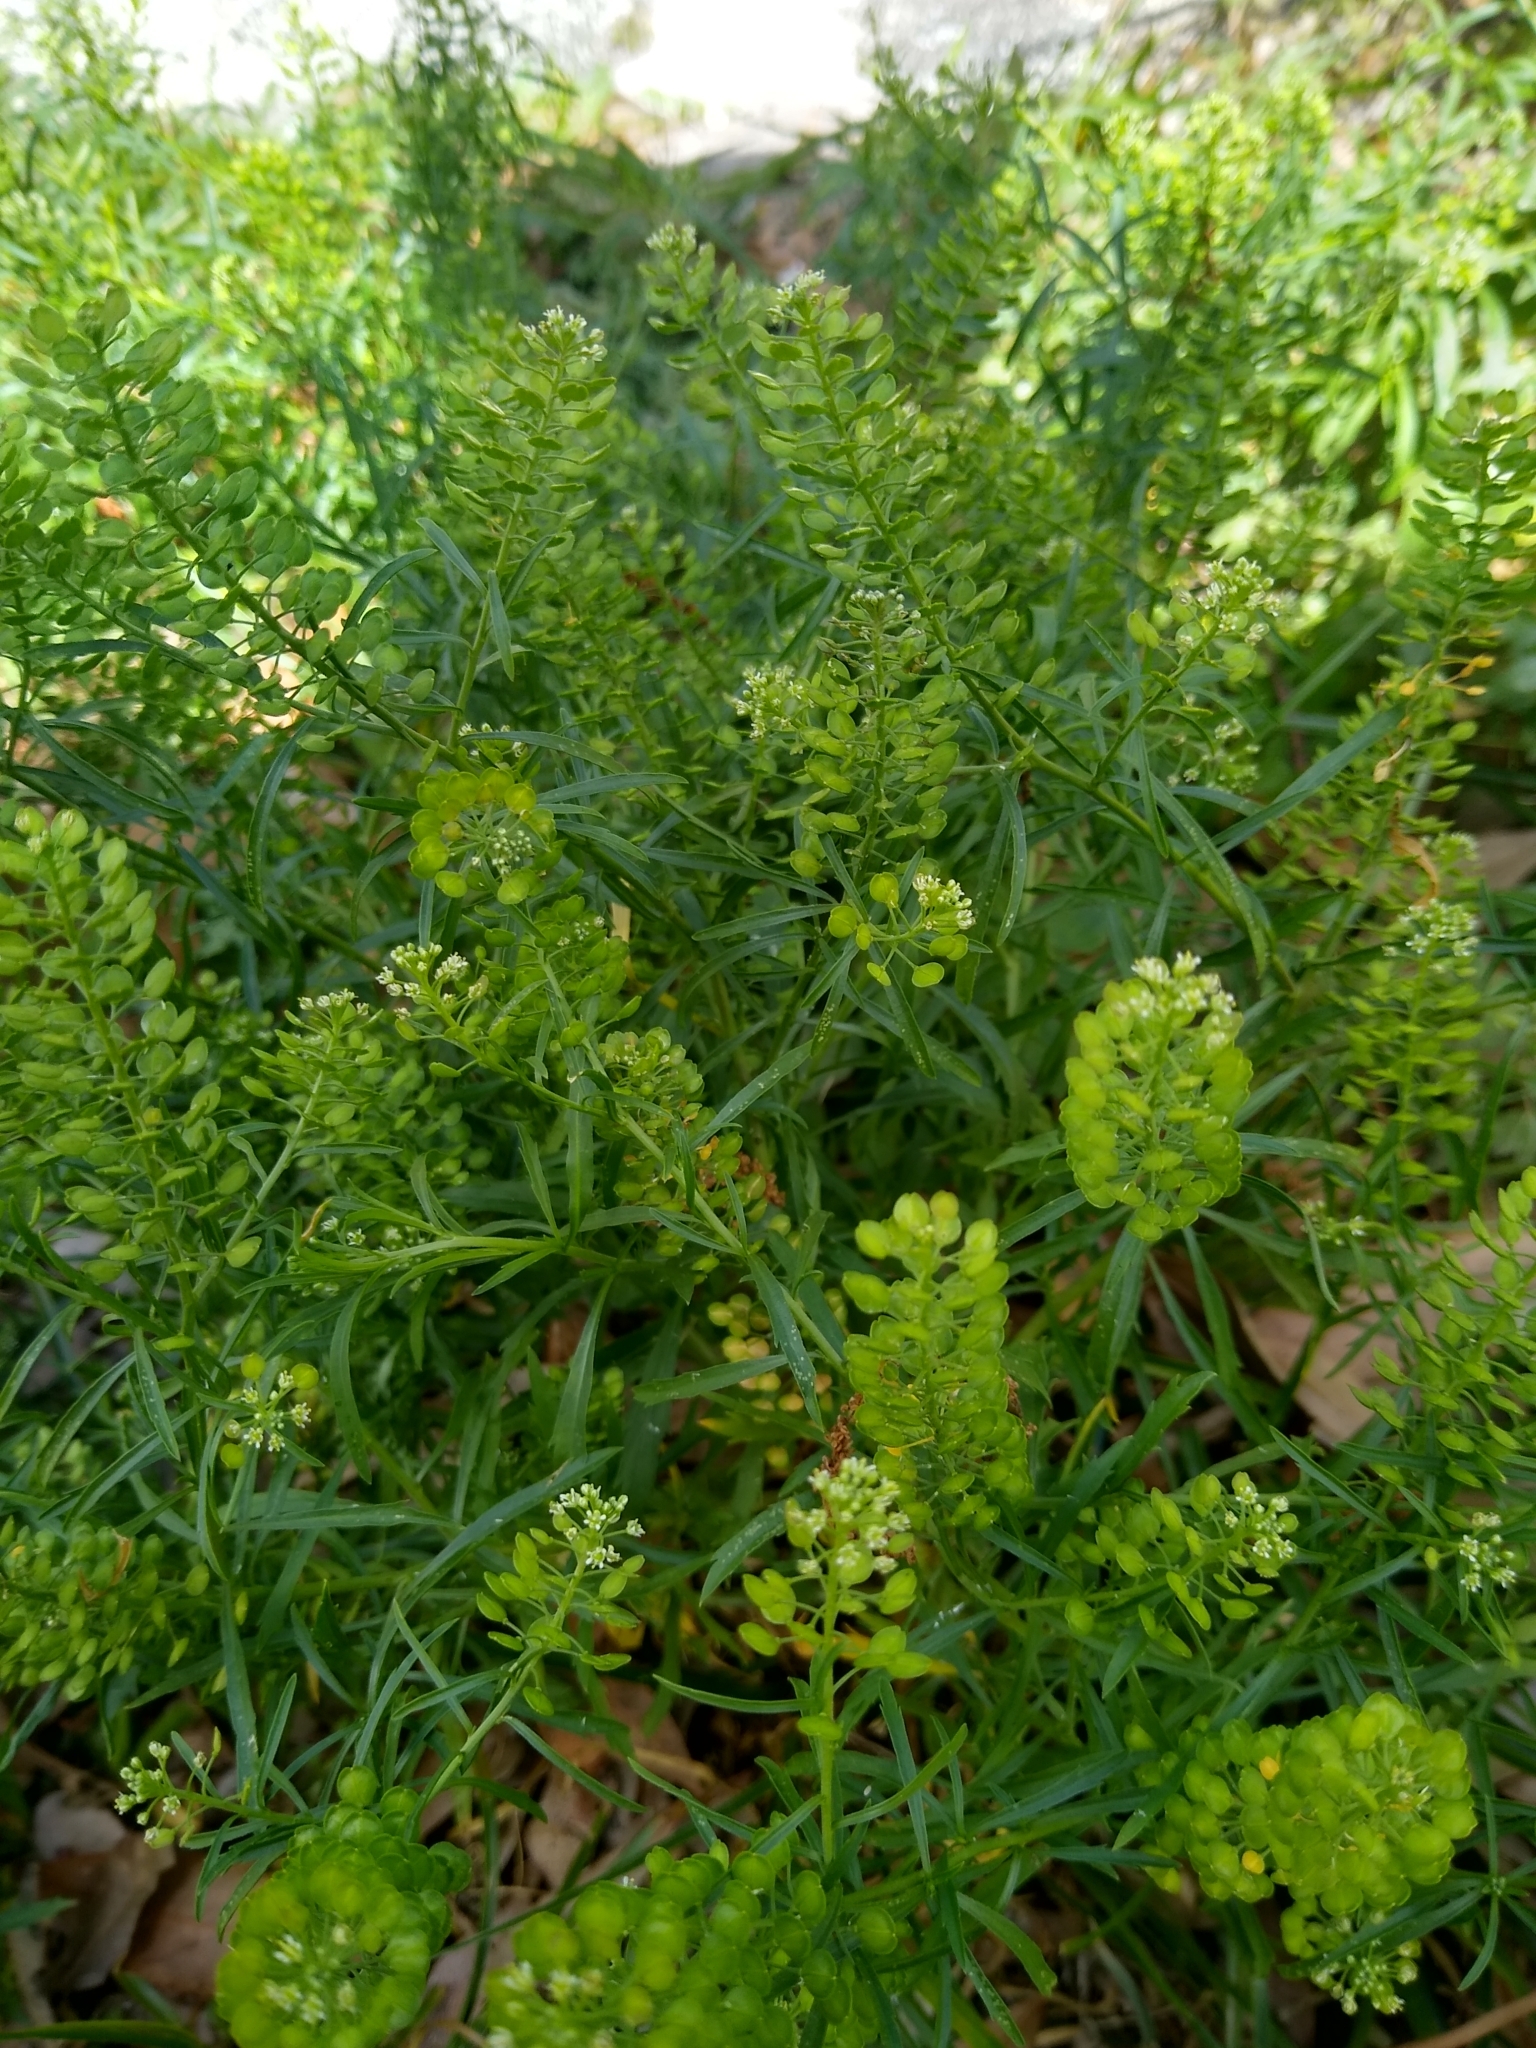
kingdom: Plantae
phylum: Tracheophyta
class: Magnoliopsida
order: Brassicales
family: Brassicaceae
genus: Lepidium
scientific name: Lepidium virginicum
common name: Least pepperwort
